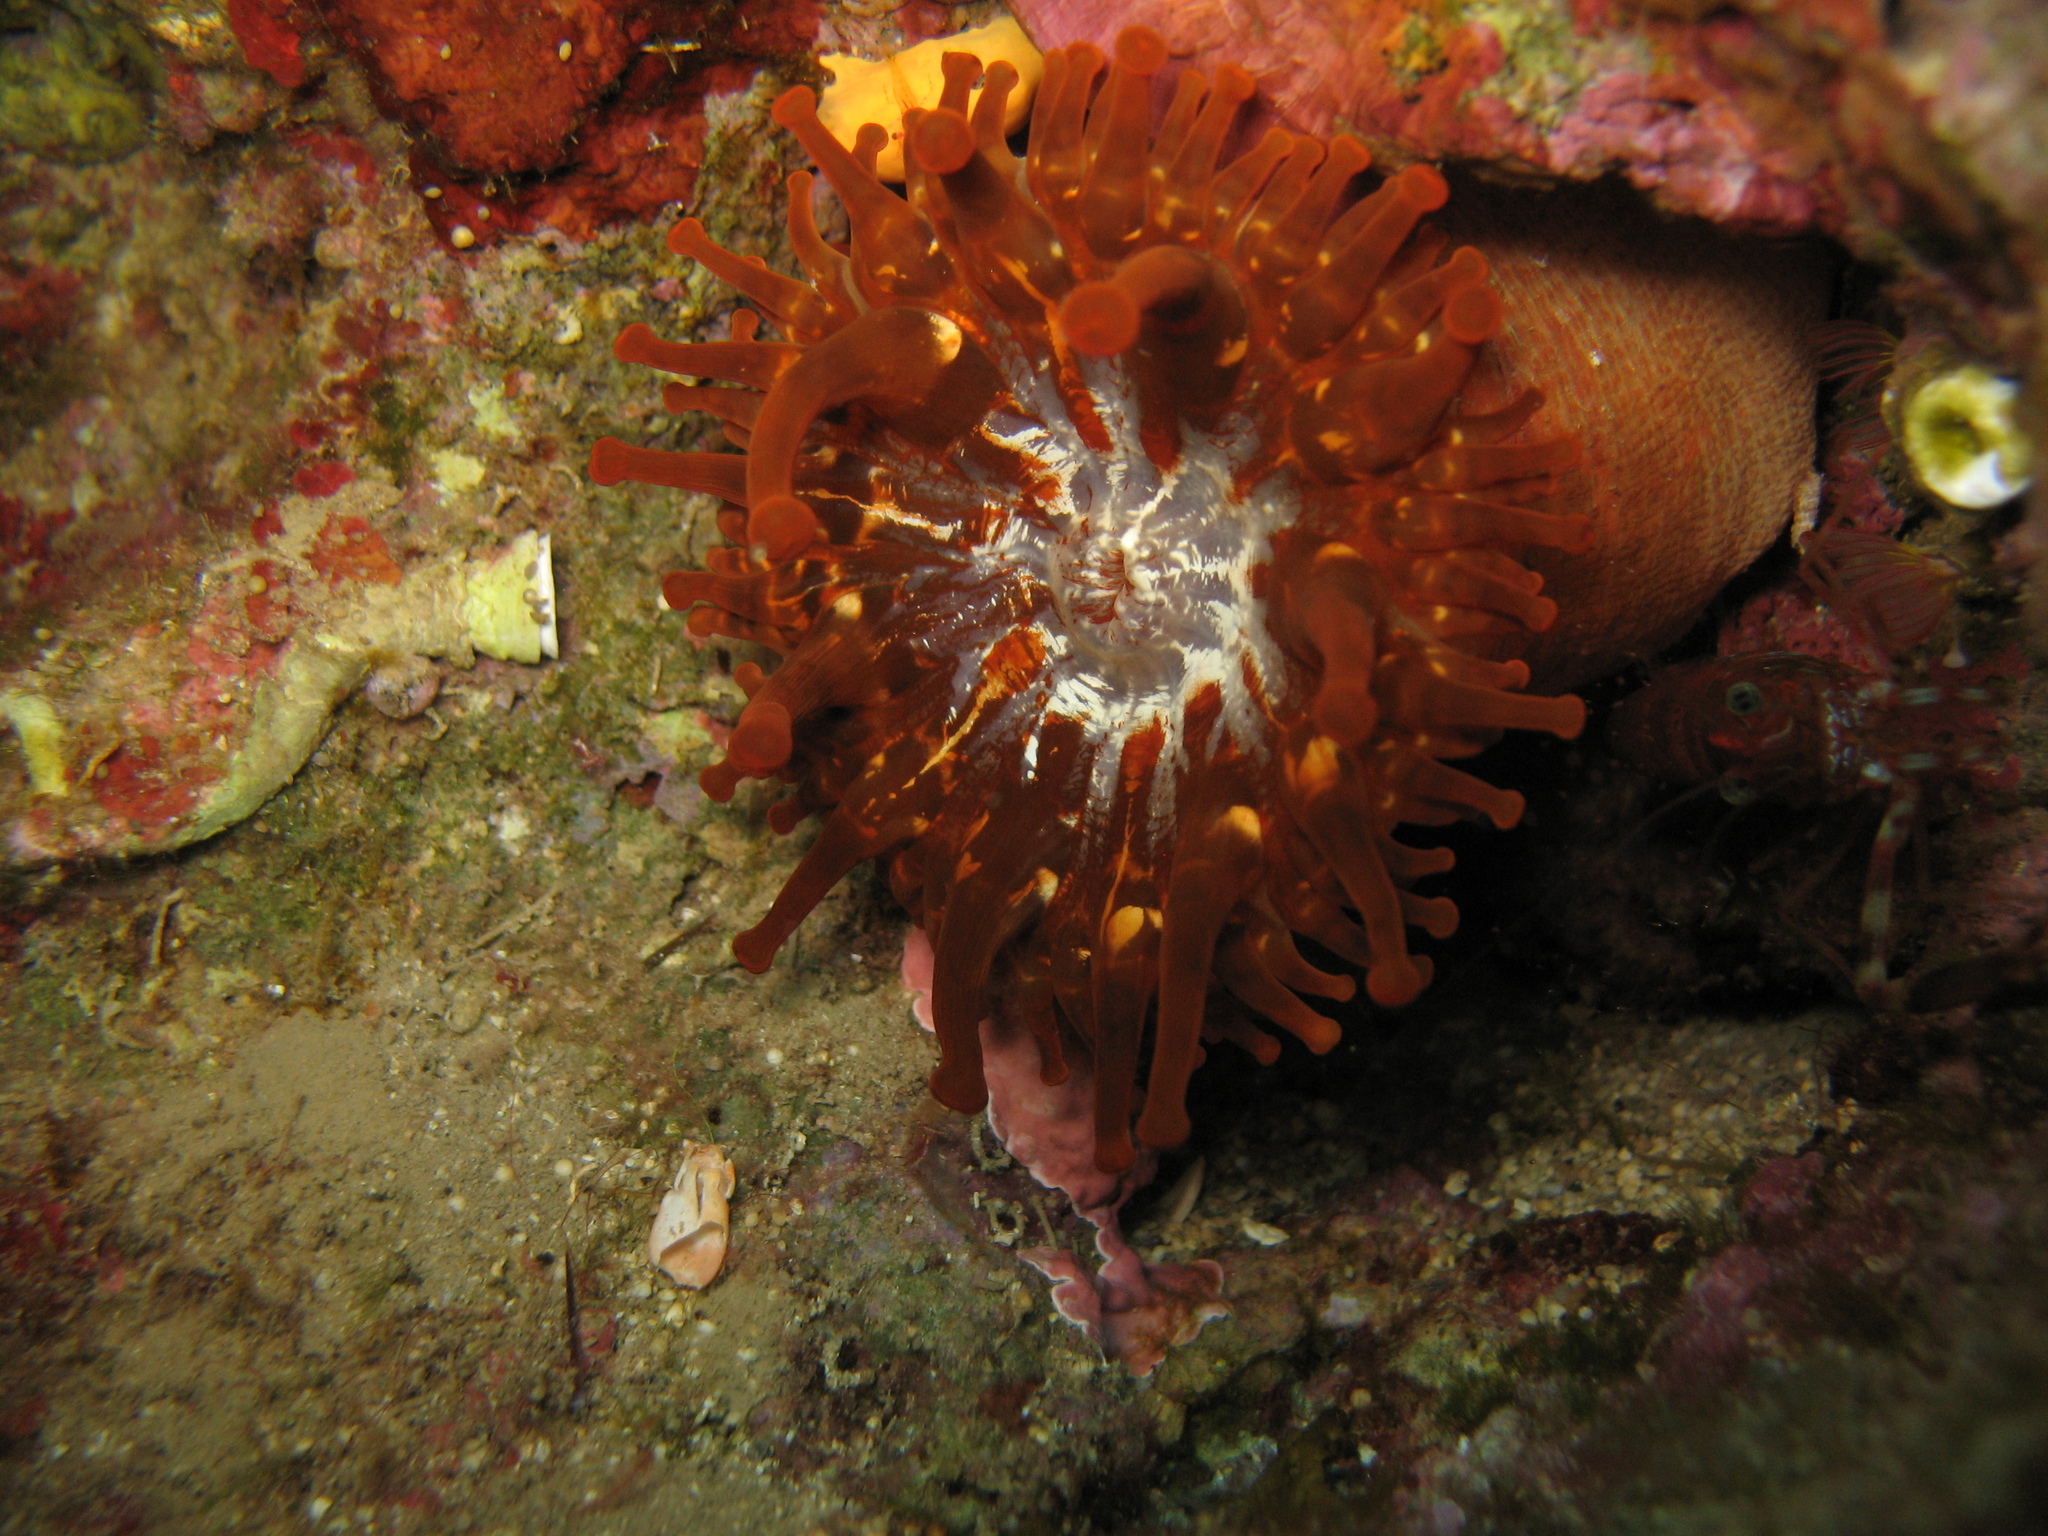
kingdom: Animalia
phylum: Cnidaria
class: Anthozoa
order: Actiniaria
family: Andvakiidae
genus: Telmatactis
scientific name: Telmatactis cricoides
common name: Blunt-tentacled anemone
